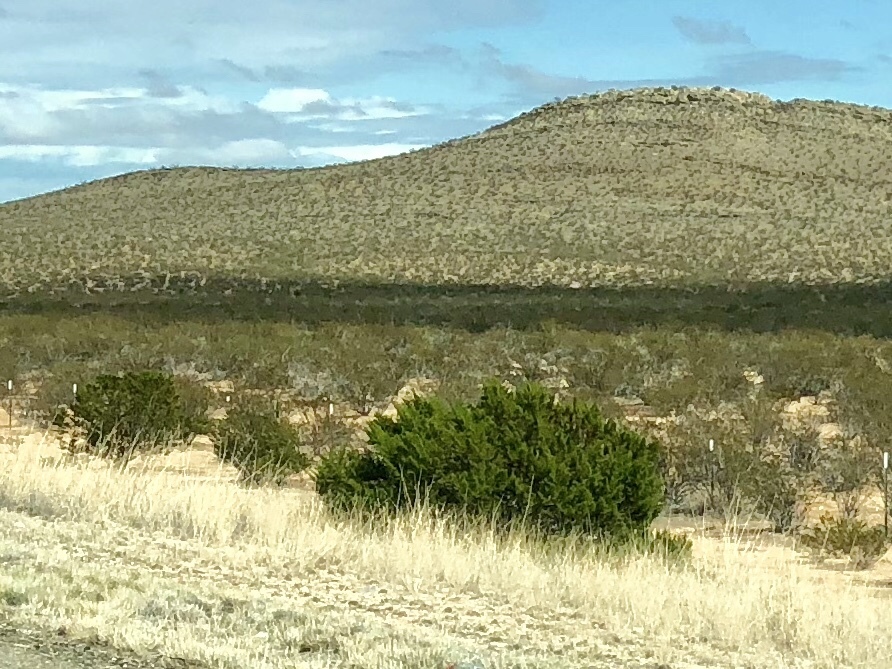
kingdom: Plantae
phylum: Tracheophyta
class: Magnoliopsida
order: Zygophyllales
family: Zygophyllaceae
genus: Larrea
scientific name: Larrea tridentata
